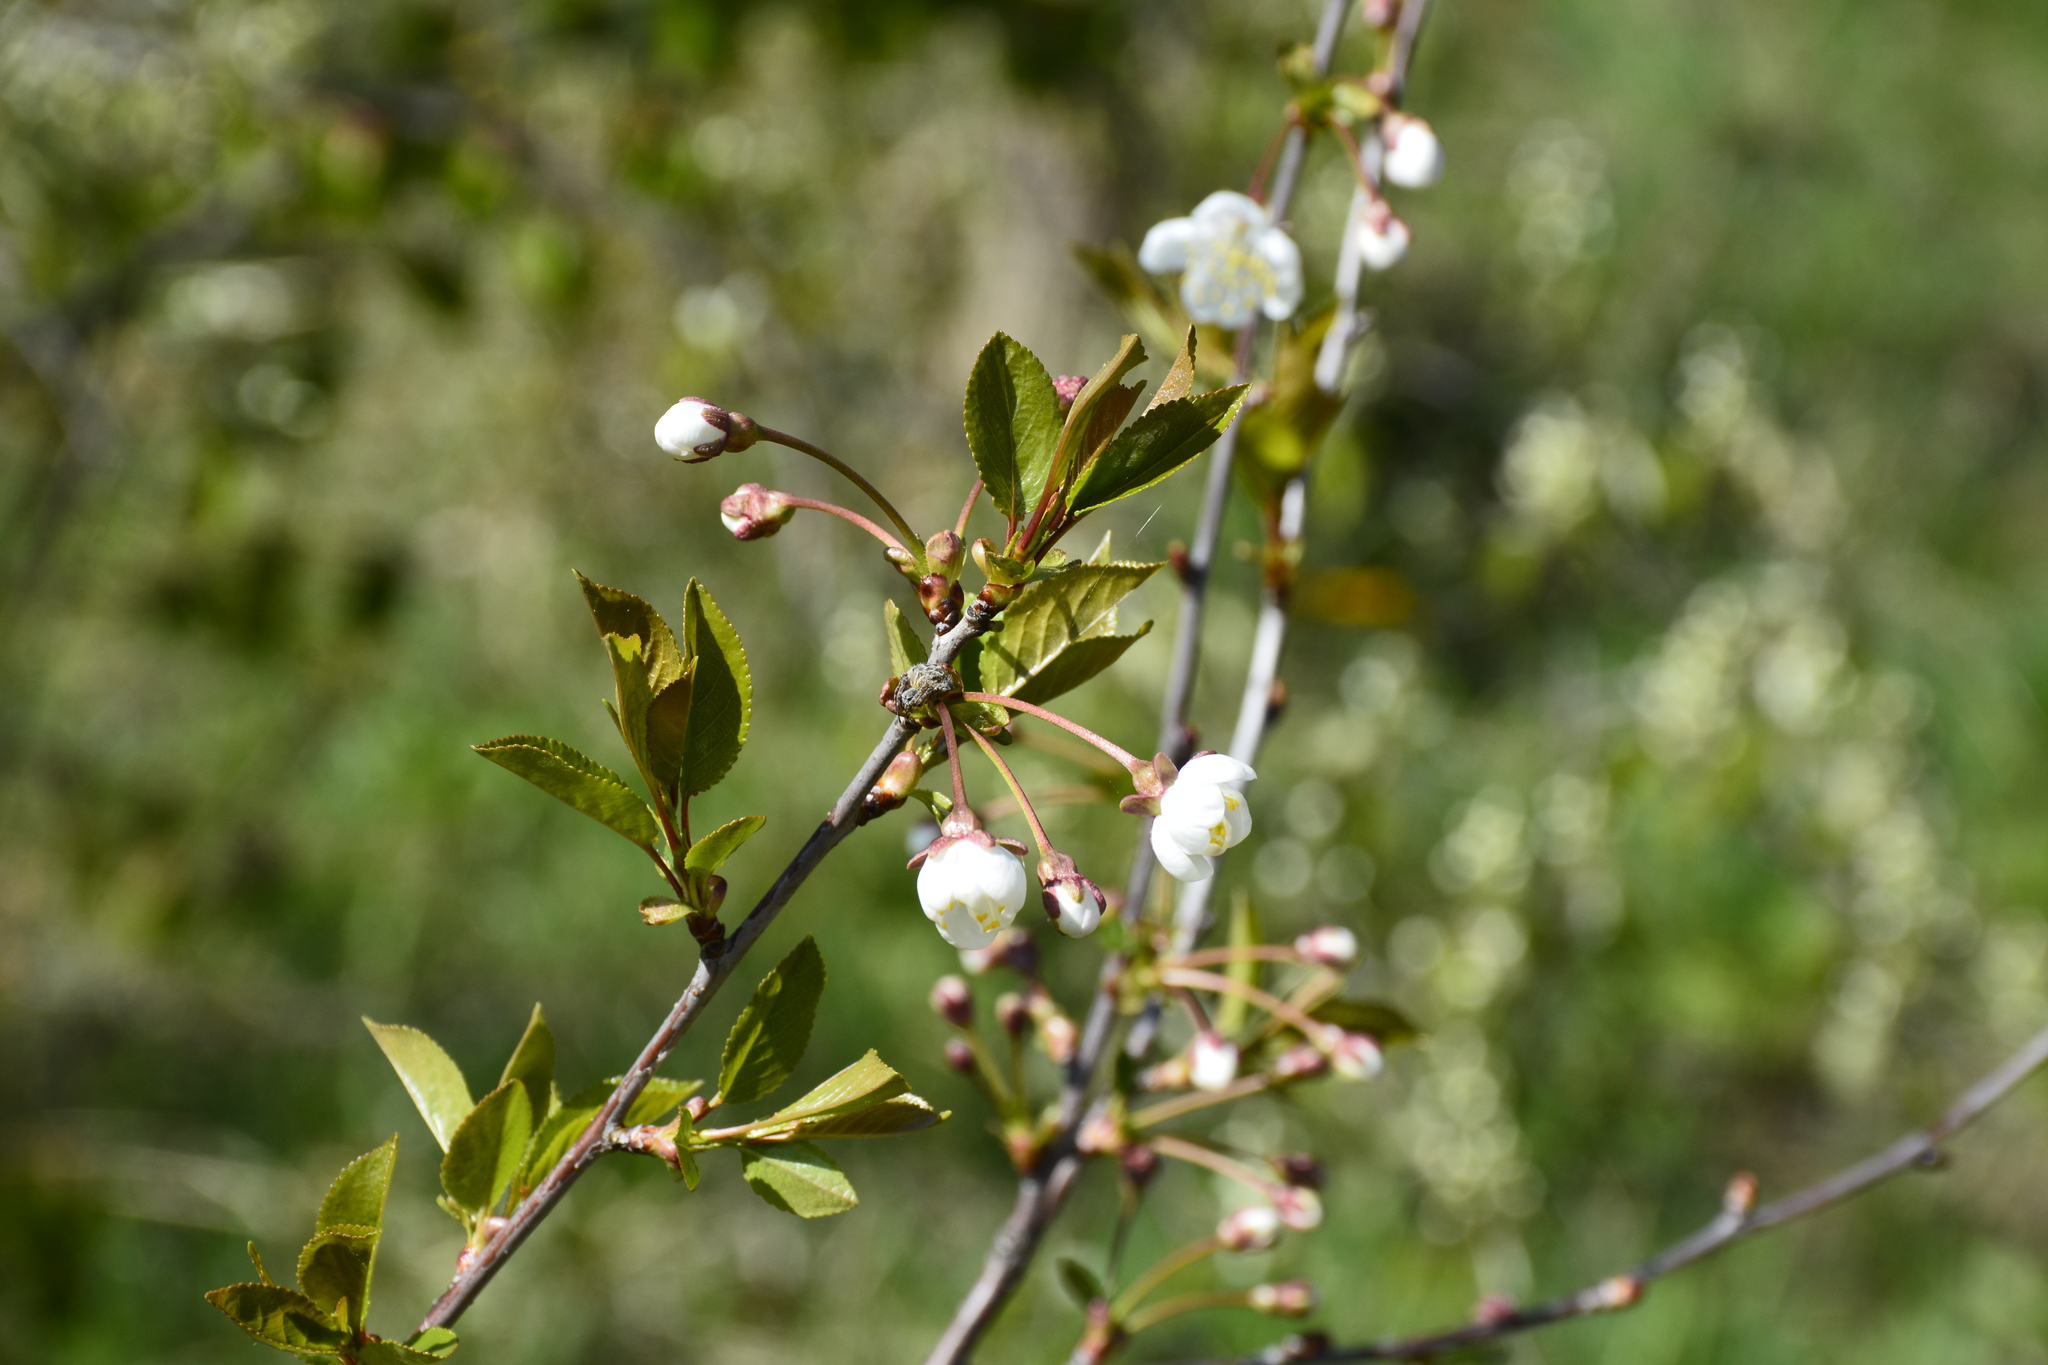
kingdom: Plantae
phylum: Tracheophyta
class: Magnoliopsida
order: Rosales
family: Rosaceae
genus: Prunus
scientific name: Prunus cerasus
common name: Morello cherry
